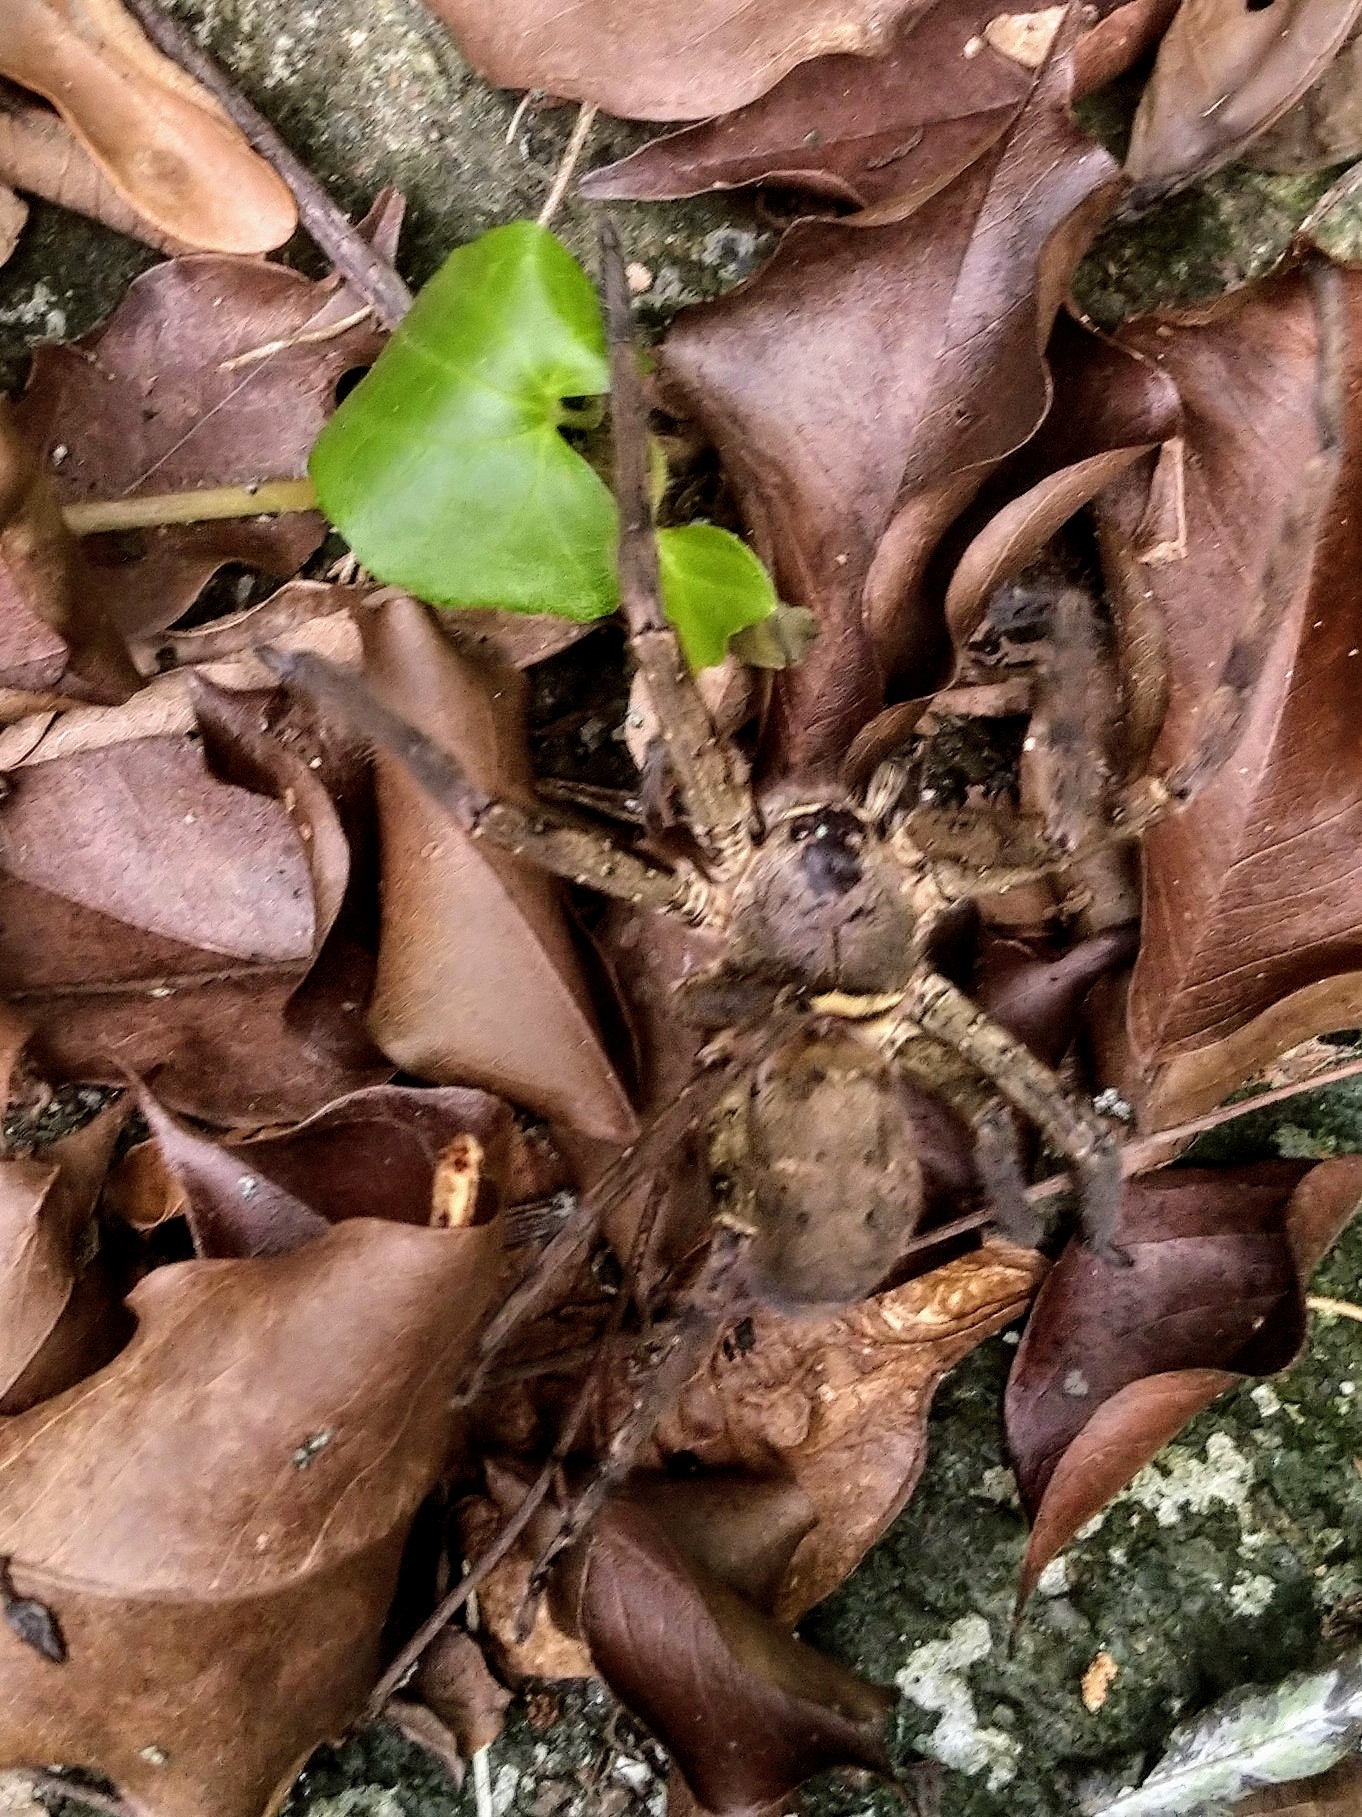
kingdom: Animalia
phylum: Arthropoda
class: Arachnida
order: Araneae
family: Sparassidae
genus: Heteropoda
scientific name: Heteropoda venatoria
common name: Huntsman spider
